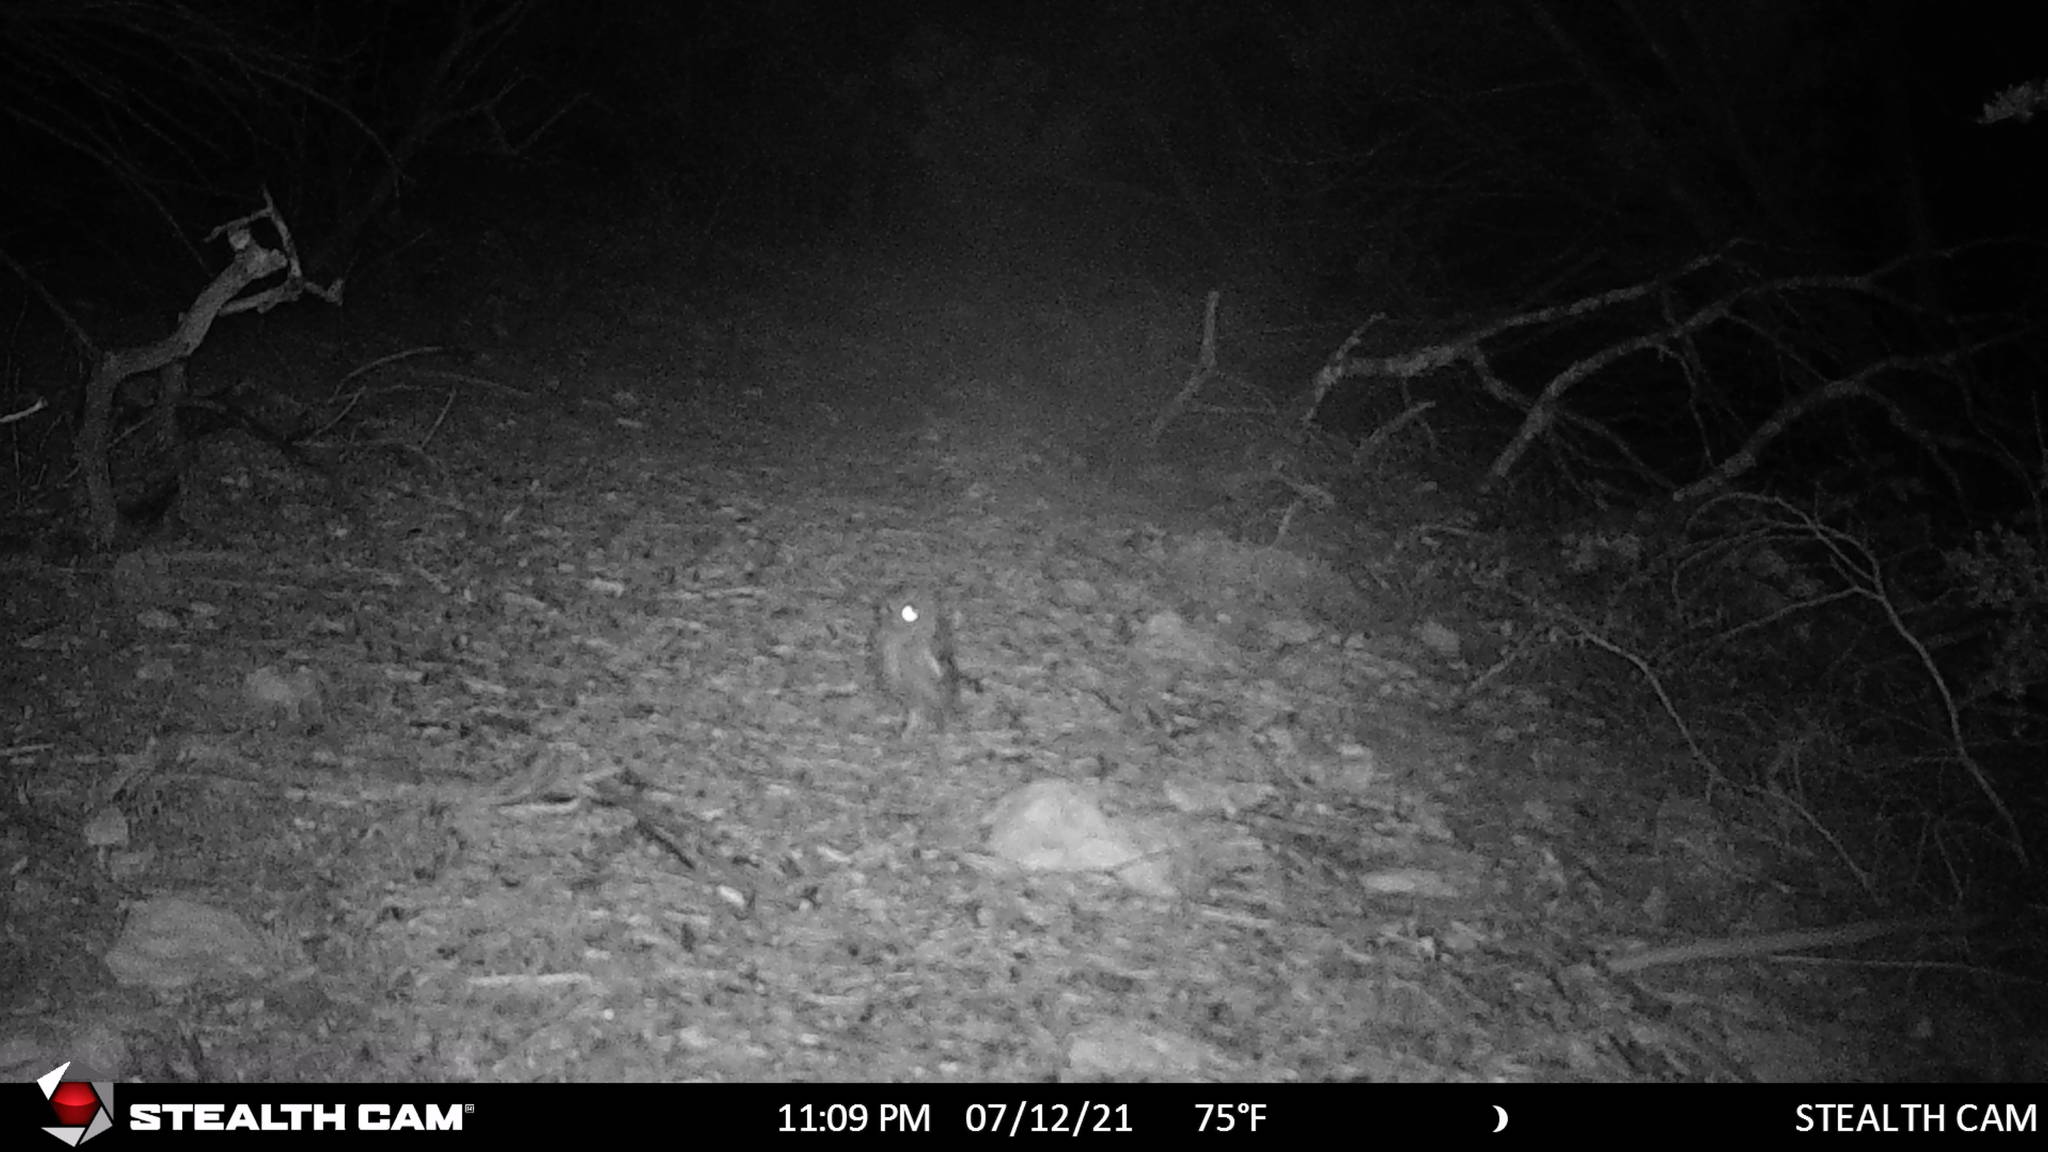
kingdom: Animalia
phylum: Chordata
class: Aves
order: Strigiformes
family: Strigidae
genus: Megascops
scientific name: Megascops asio
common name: Eastern screech-owl
